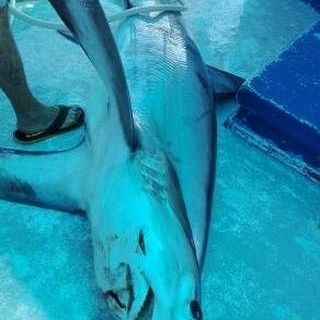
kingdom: Animalia
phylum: Chordata
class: Elasmobranchii
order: Lamniformes
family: Alopiidae
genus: Alopias
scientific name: Alopias superciliosus
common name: Bigeye thresher
